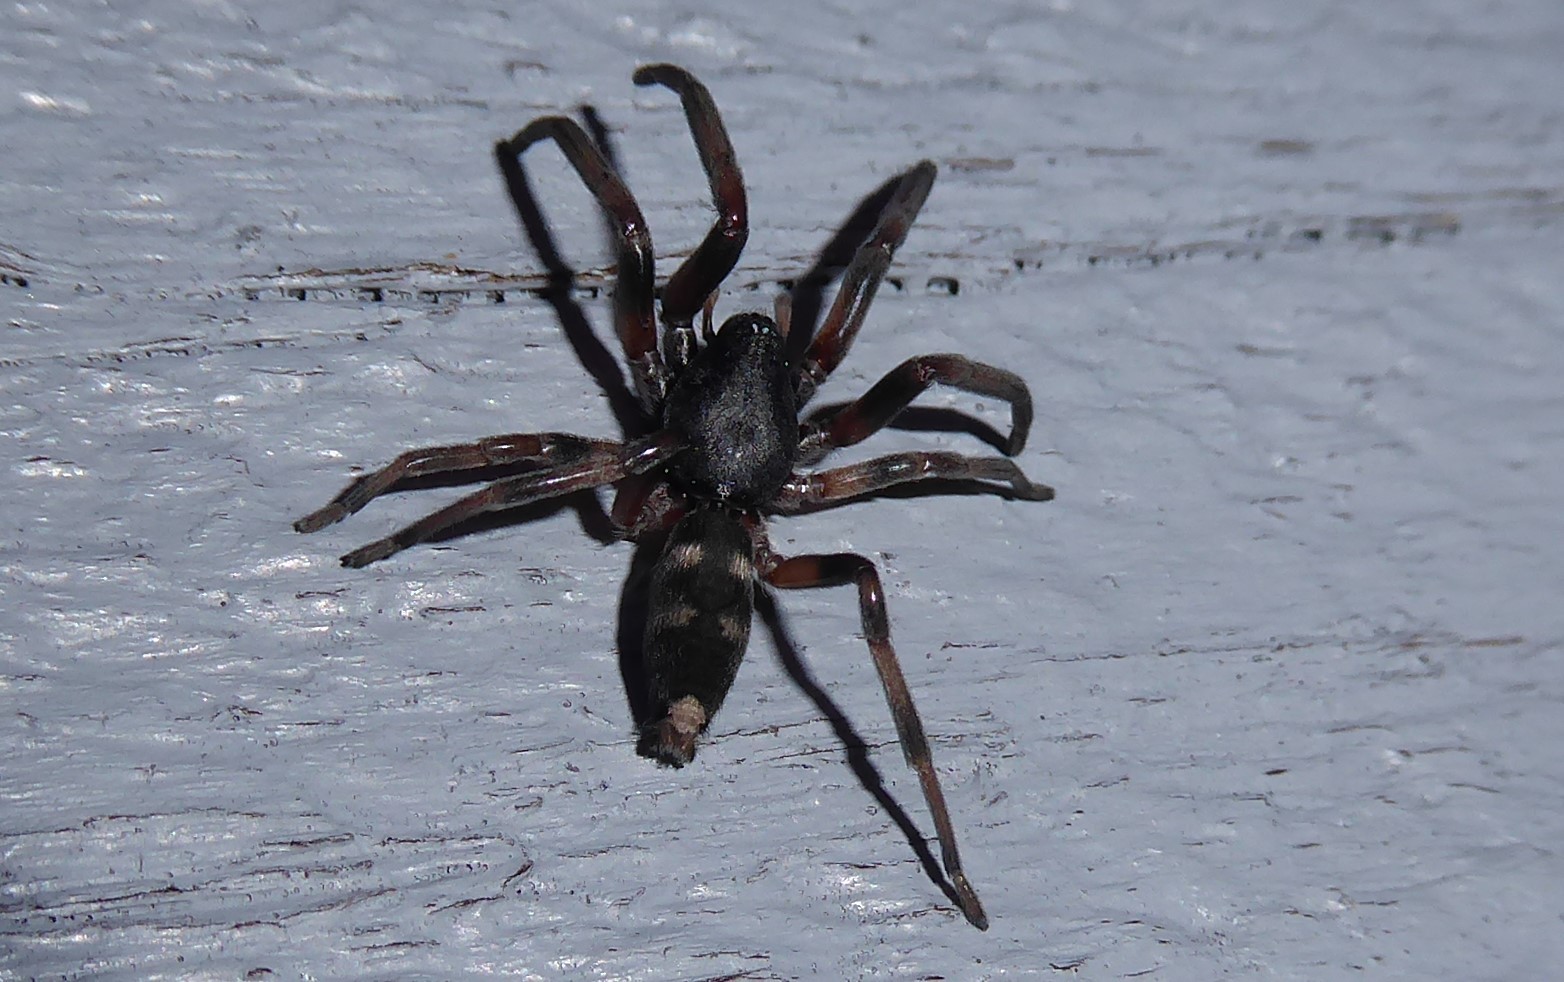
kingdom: Animalia
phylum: Arthropoda
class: Arachnida
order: Araneae
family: Lamponidae
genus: Lampona
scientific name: Lampona cylindrata
